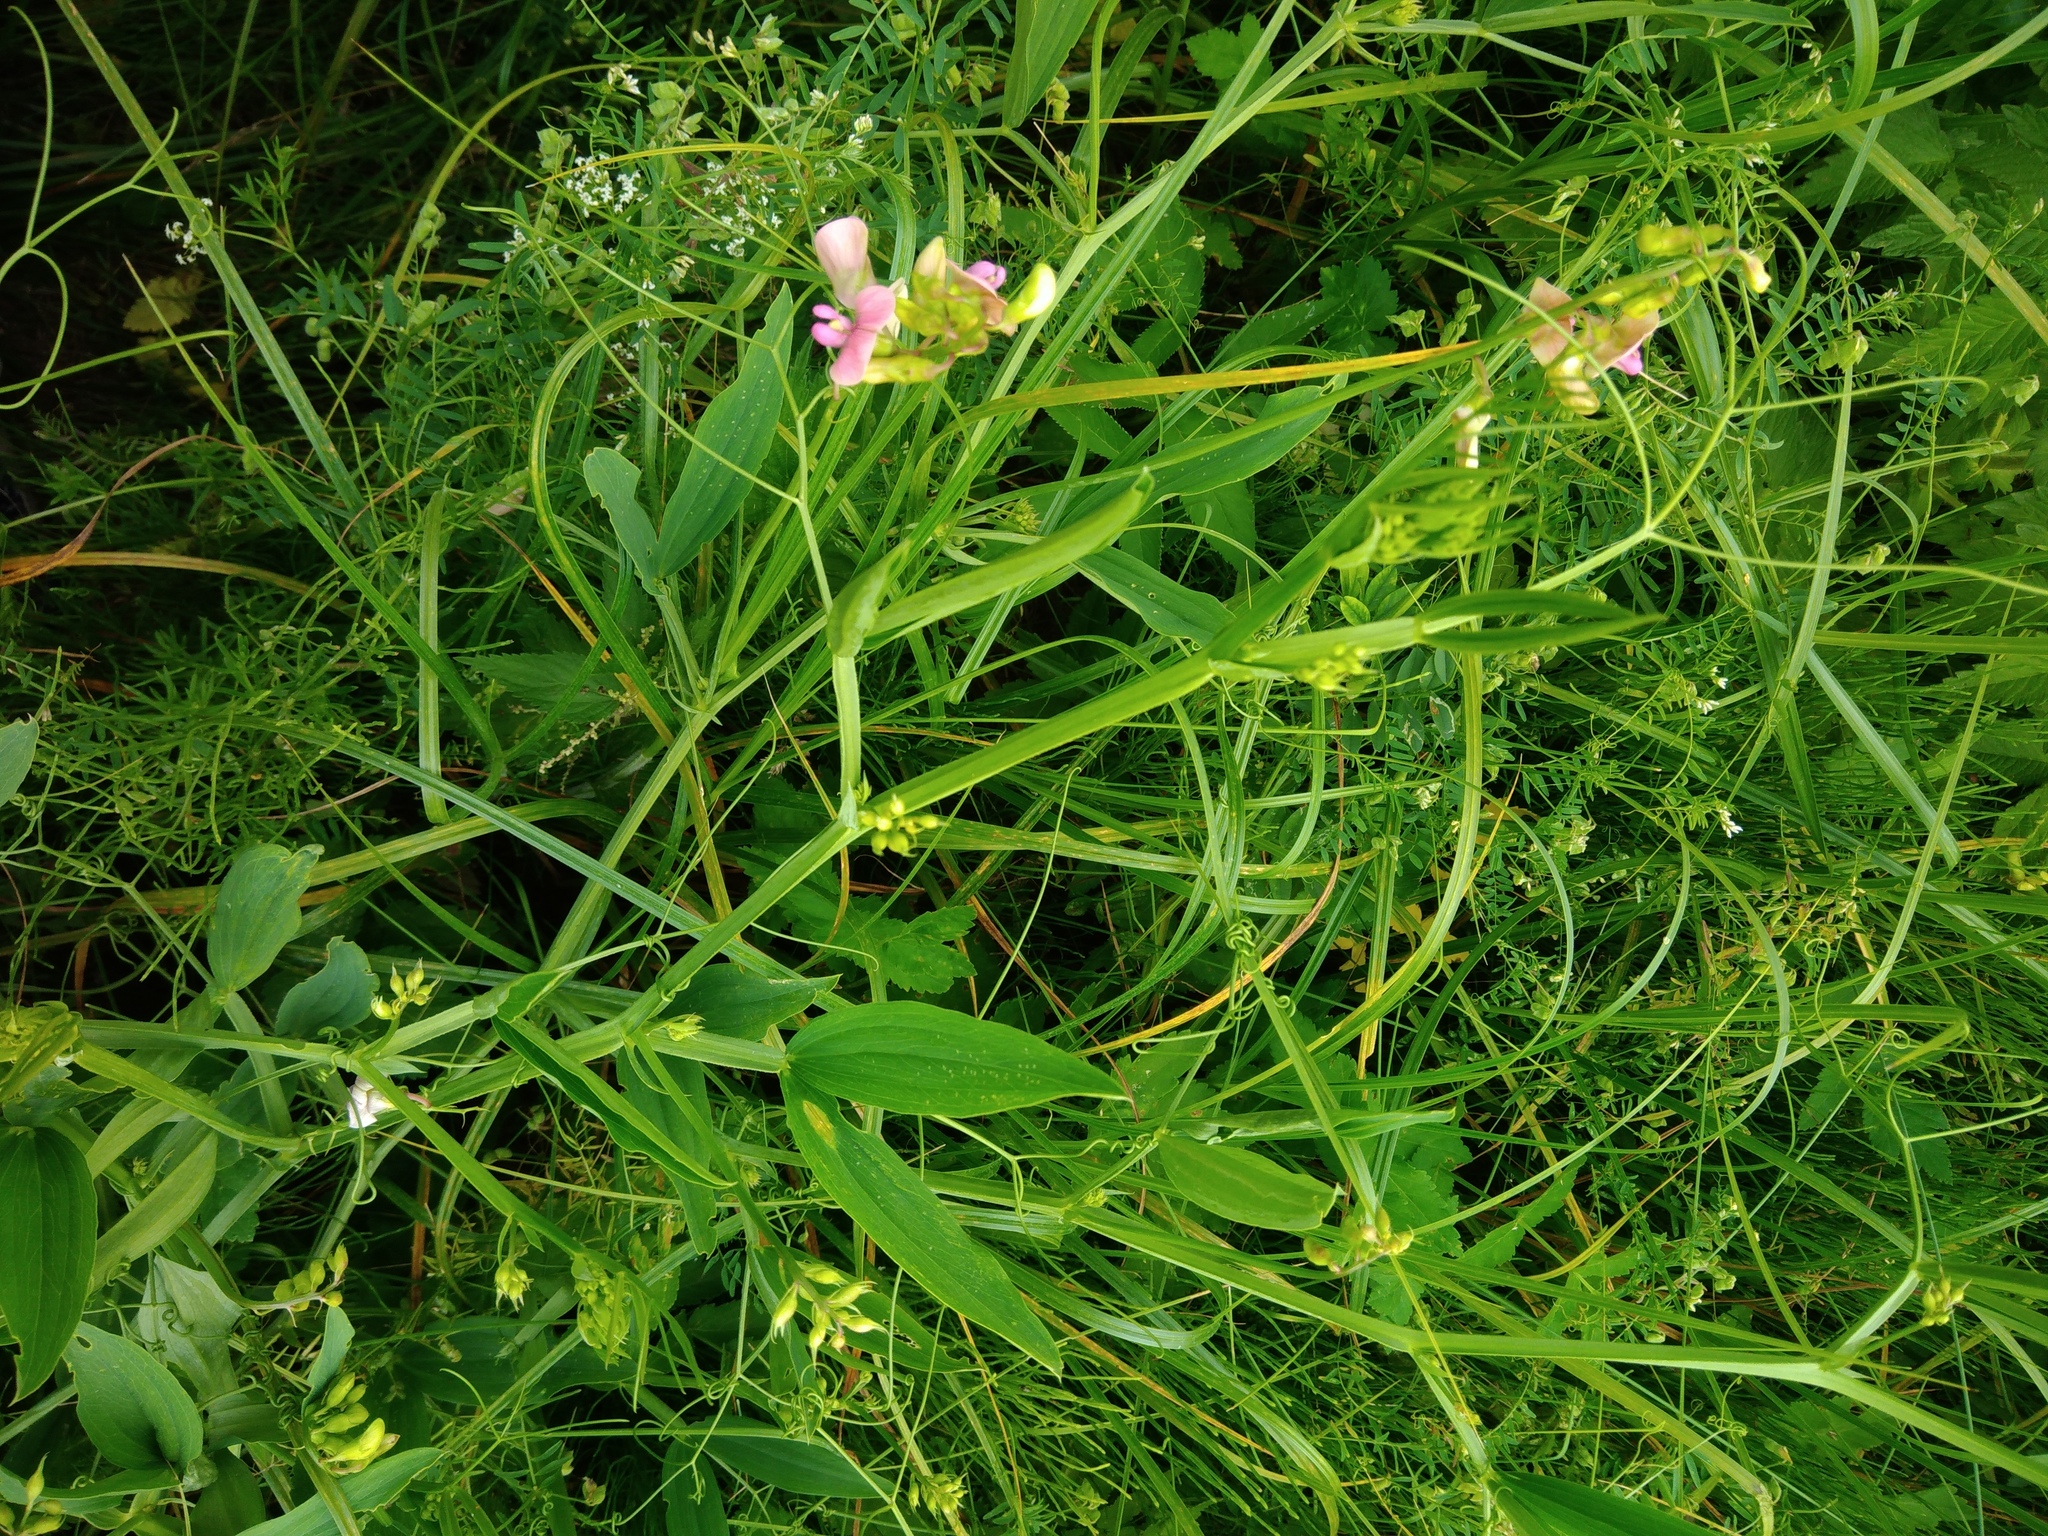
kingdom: Plantae
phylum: Tracheophyta
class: Magnoliopsida
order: Fabales
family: Fabaceae
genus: Lathyrus
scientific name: Lathyrus sylvestris
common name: Flat pea
